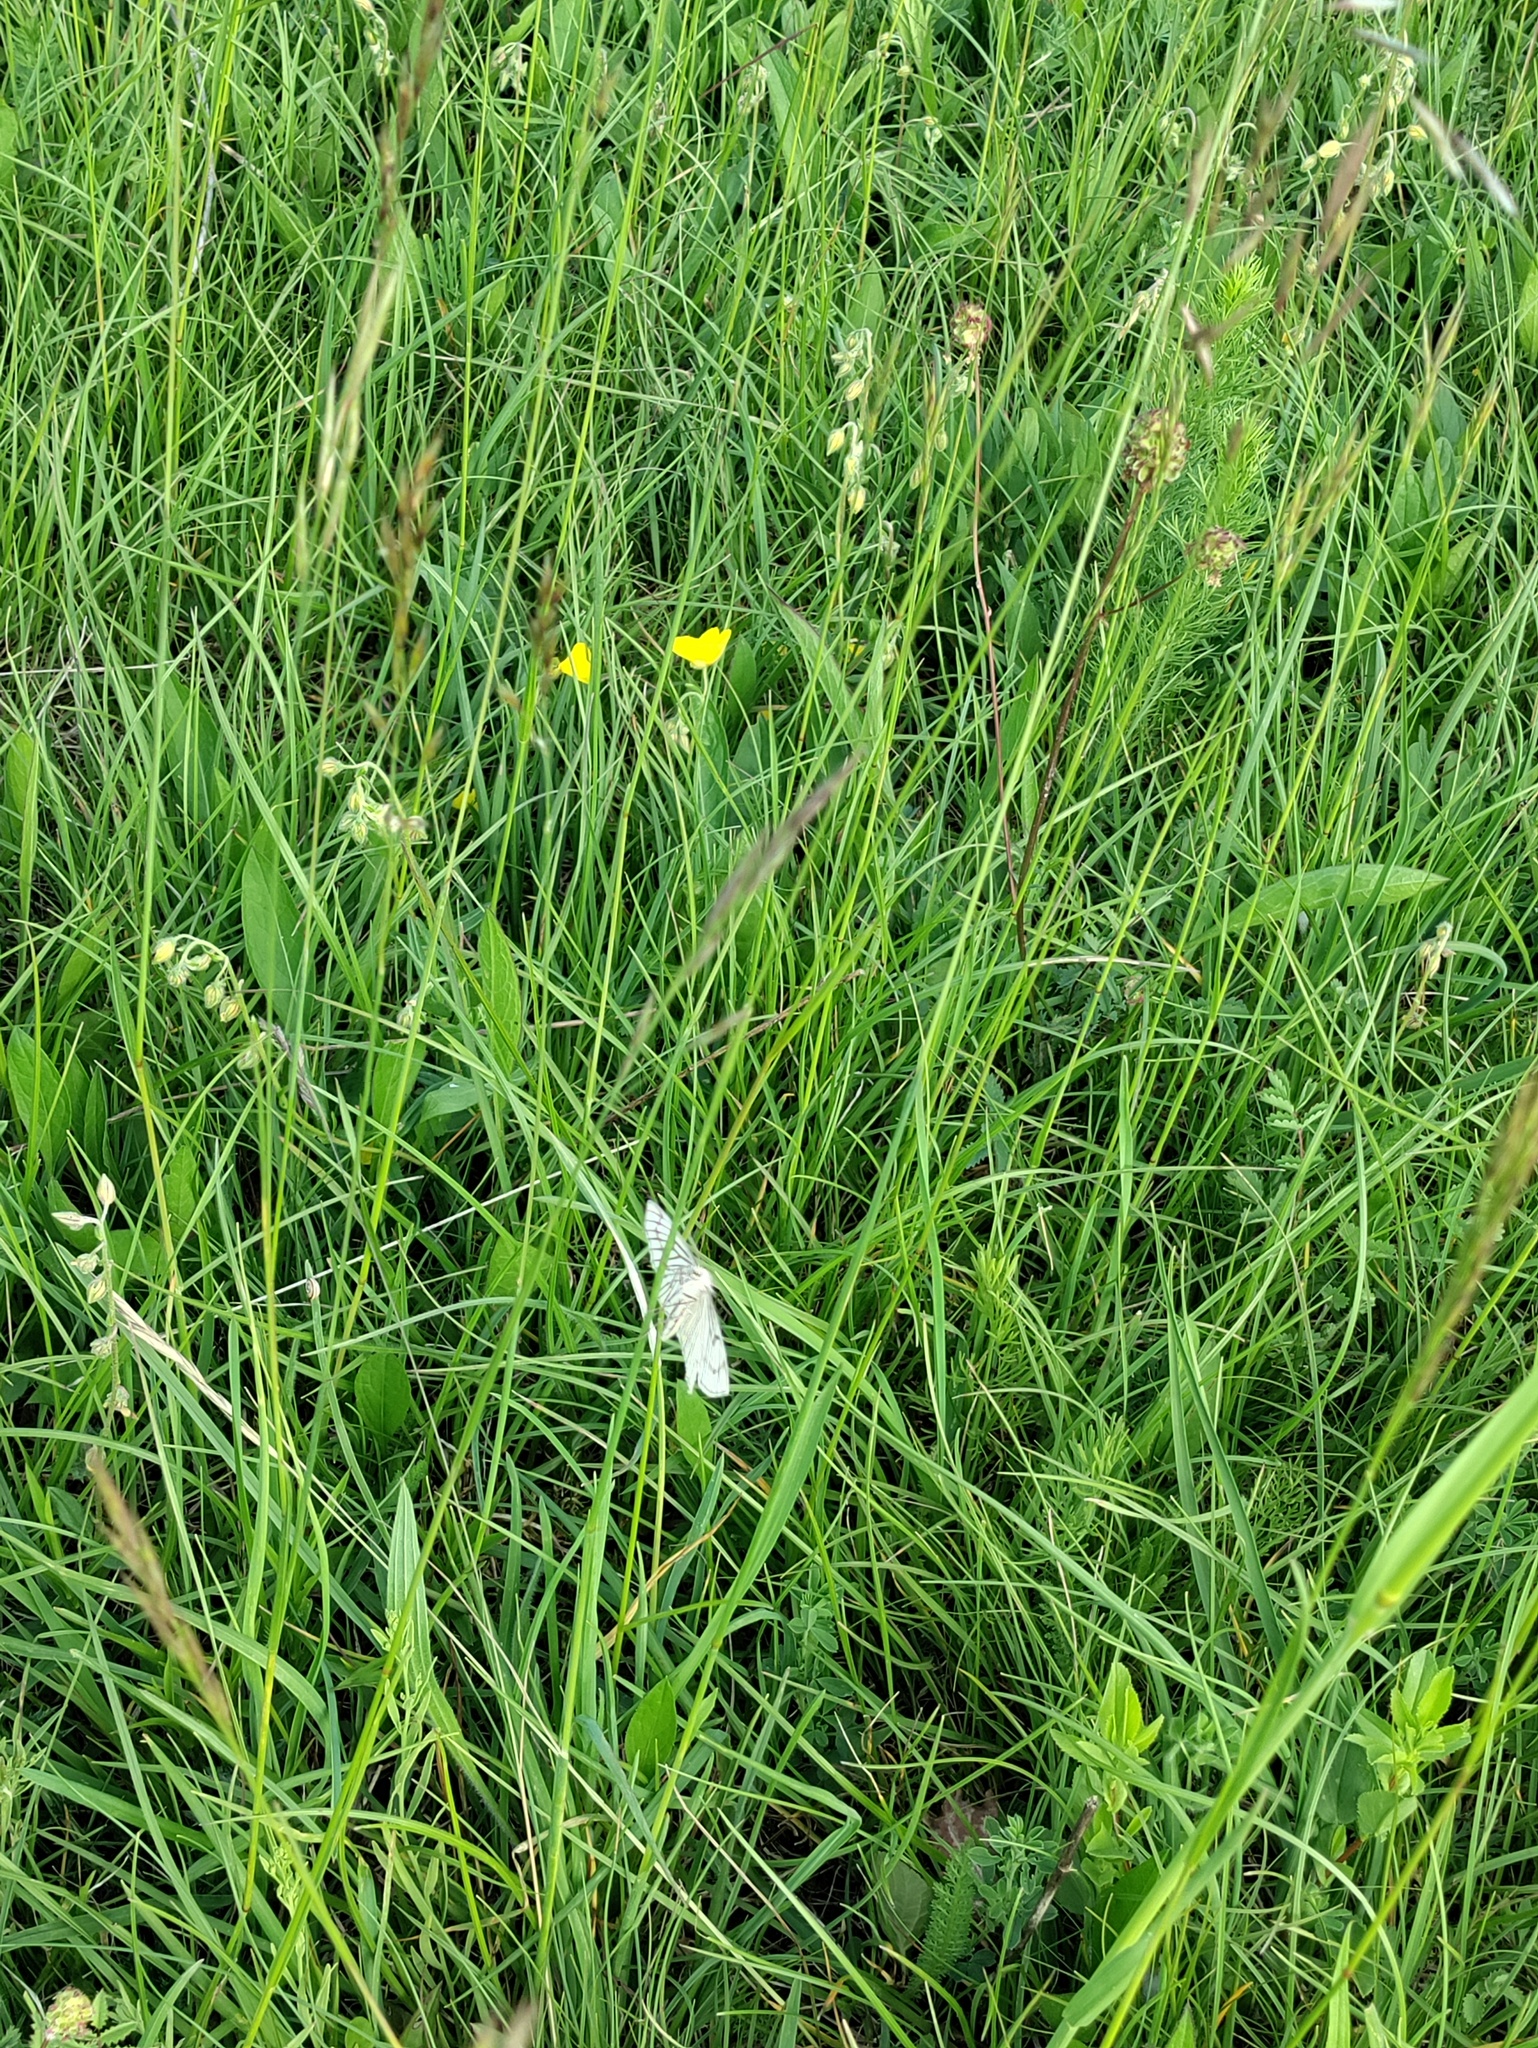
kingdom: Animalia
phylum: Arthropoda
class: Insecta
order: Lepidoptera
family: Geometridae
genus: Siona
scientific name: Siona lineata
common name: Black-veined moth
